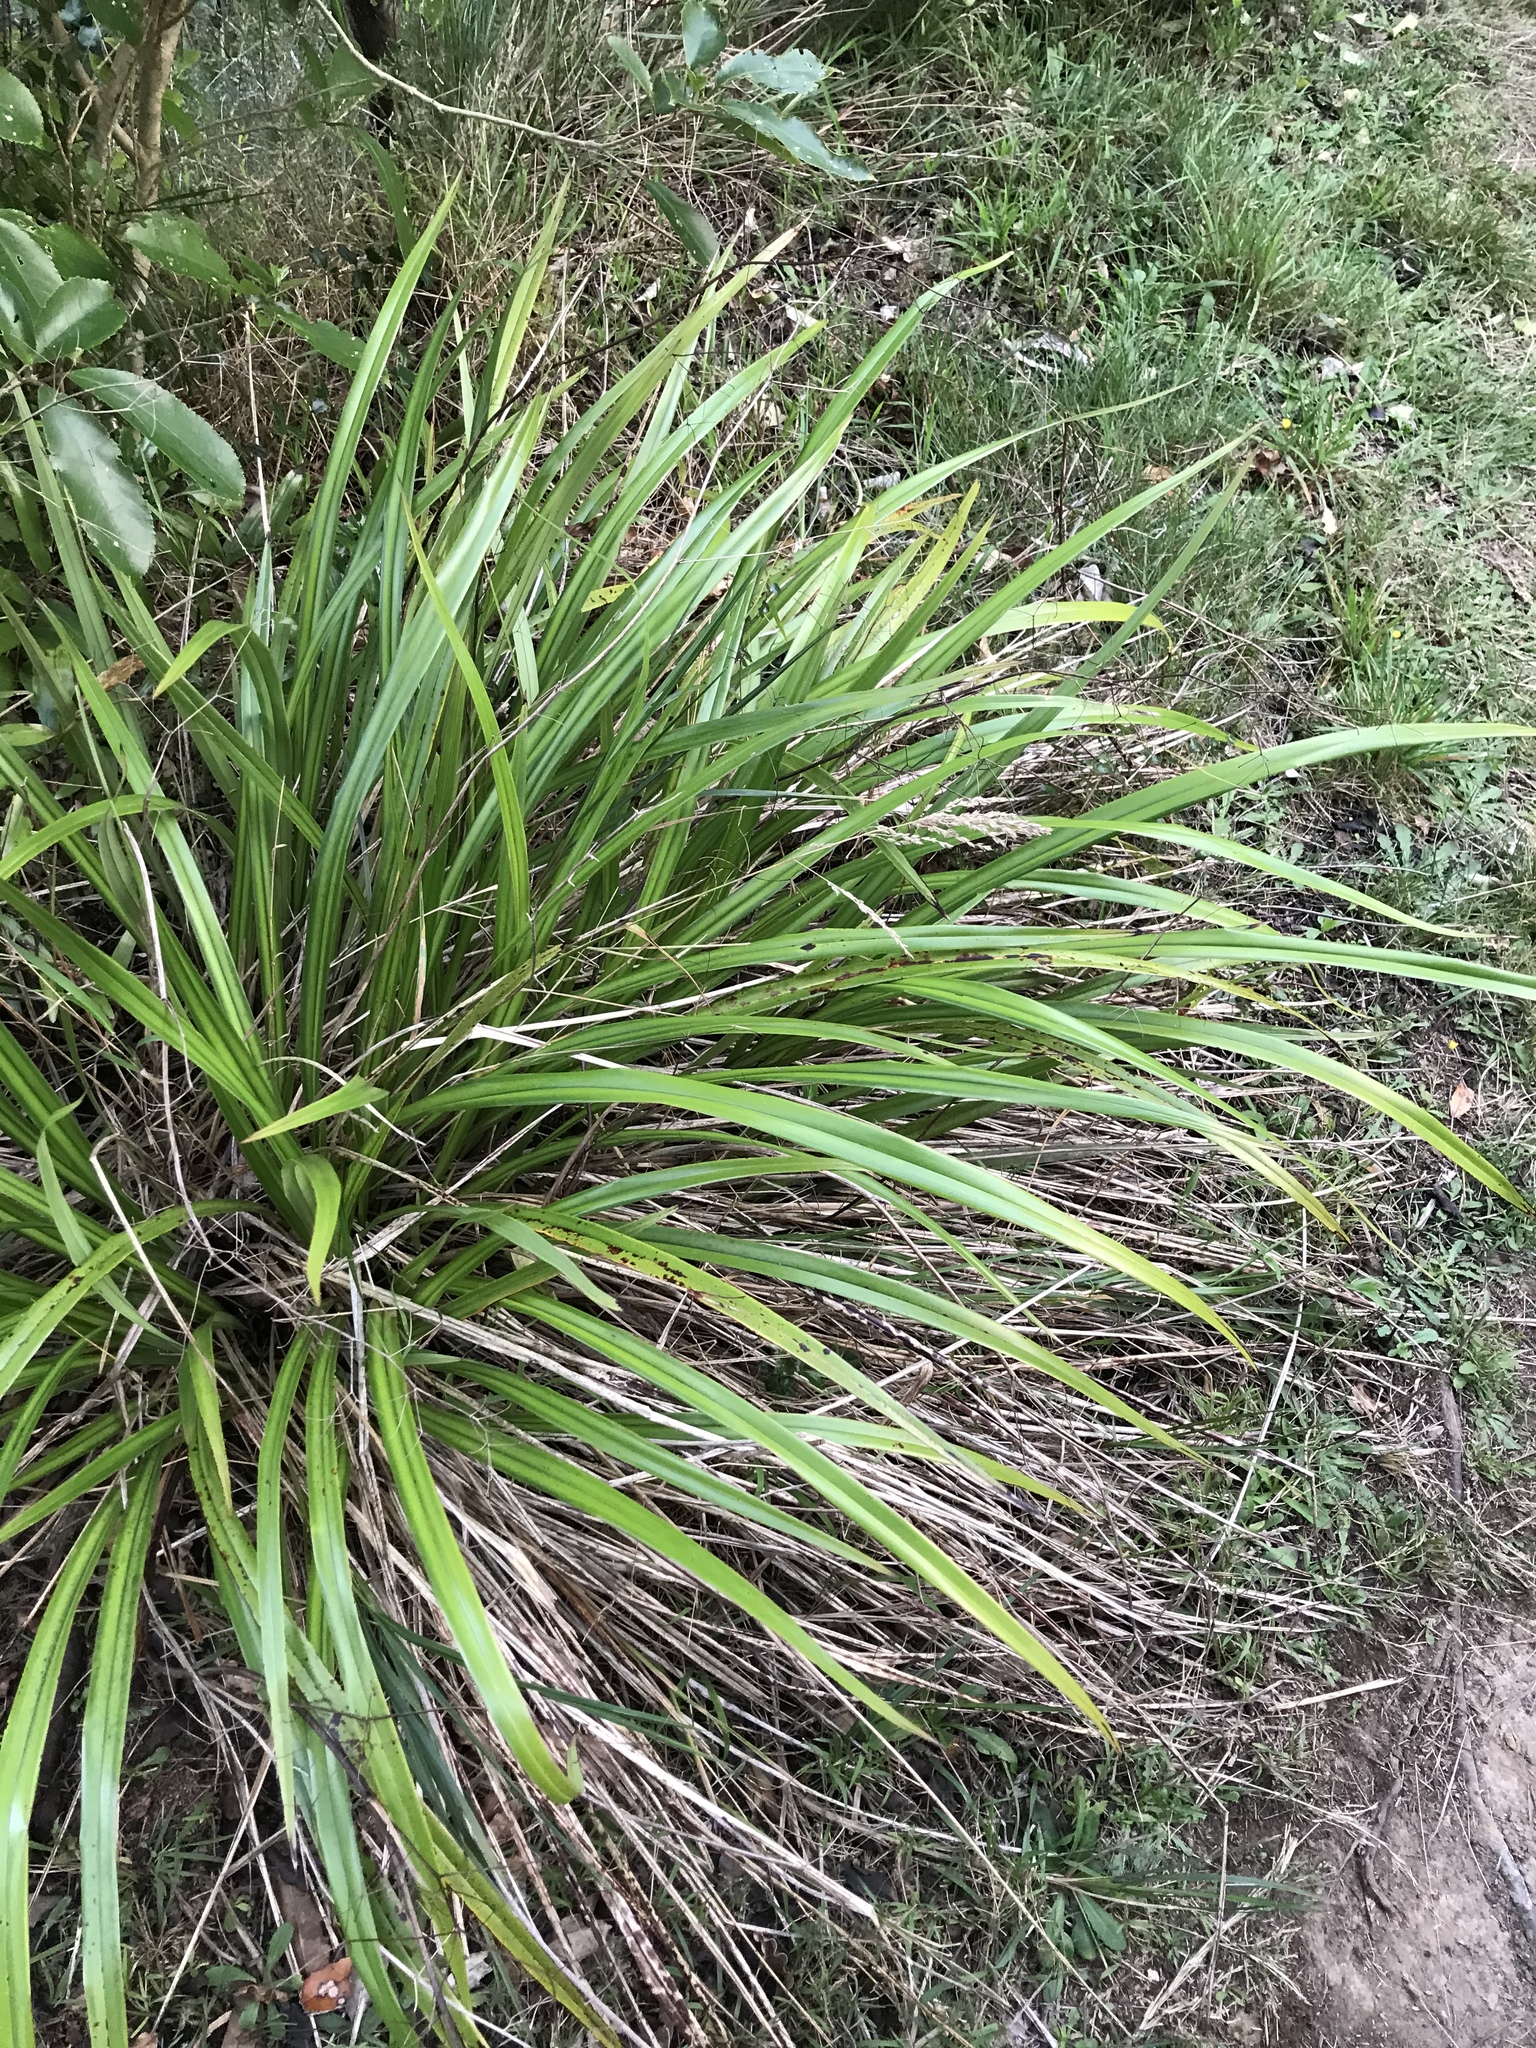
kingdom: Plantae
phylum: Tracheophyta
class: Liliopsida
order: Asparagales
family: Asphodelaceae
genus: Dianella
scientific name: Dianella nigra
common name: New zealand-blueberry
